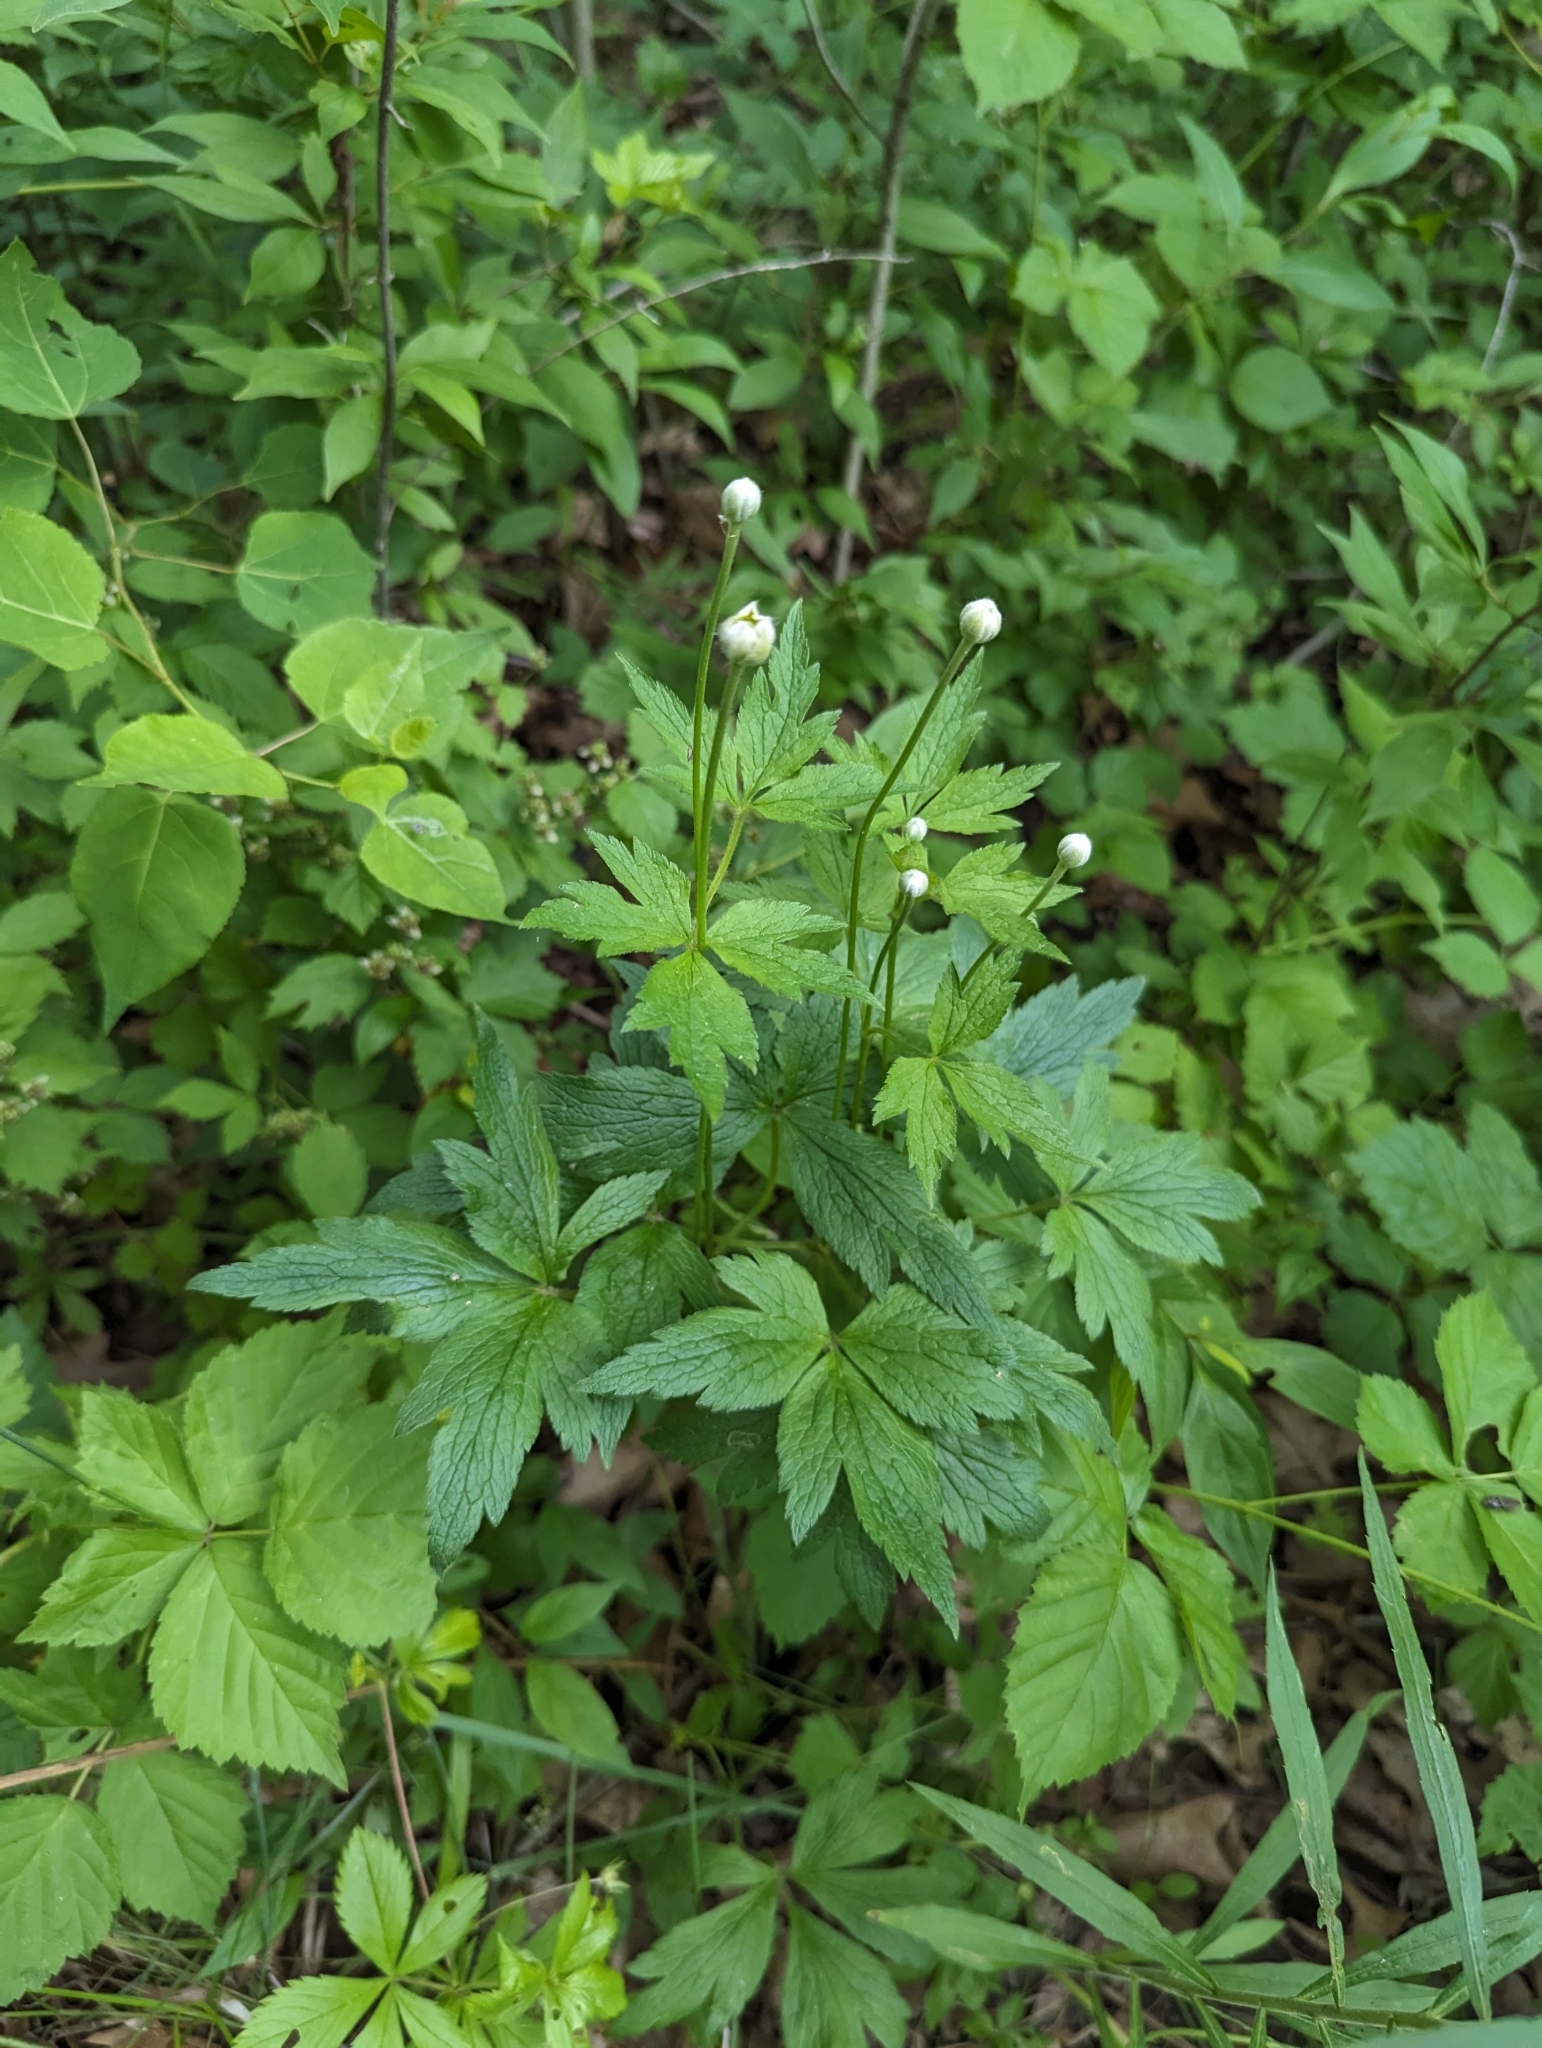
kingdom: Plantae
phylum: Tracheophyta
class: Magnoliopsida
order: Ranunculales
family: Ranunculaceae
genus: Anemone
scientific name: Anemone virginiana
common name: Tall anemone
